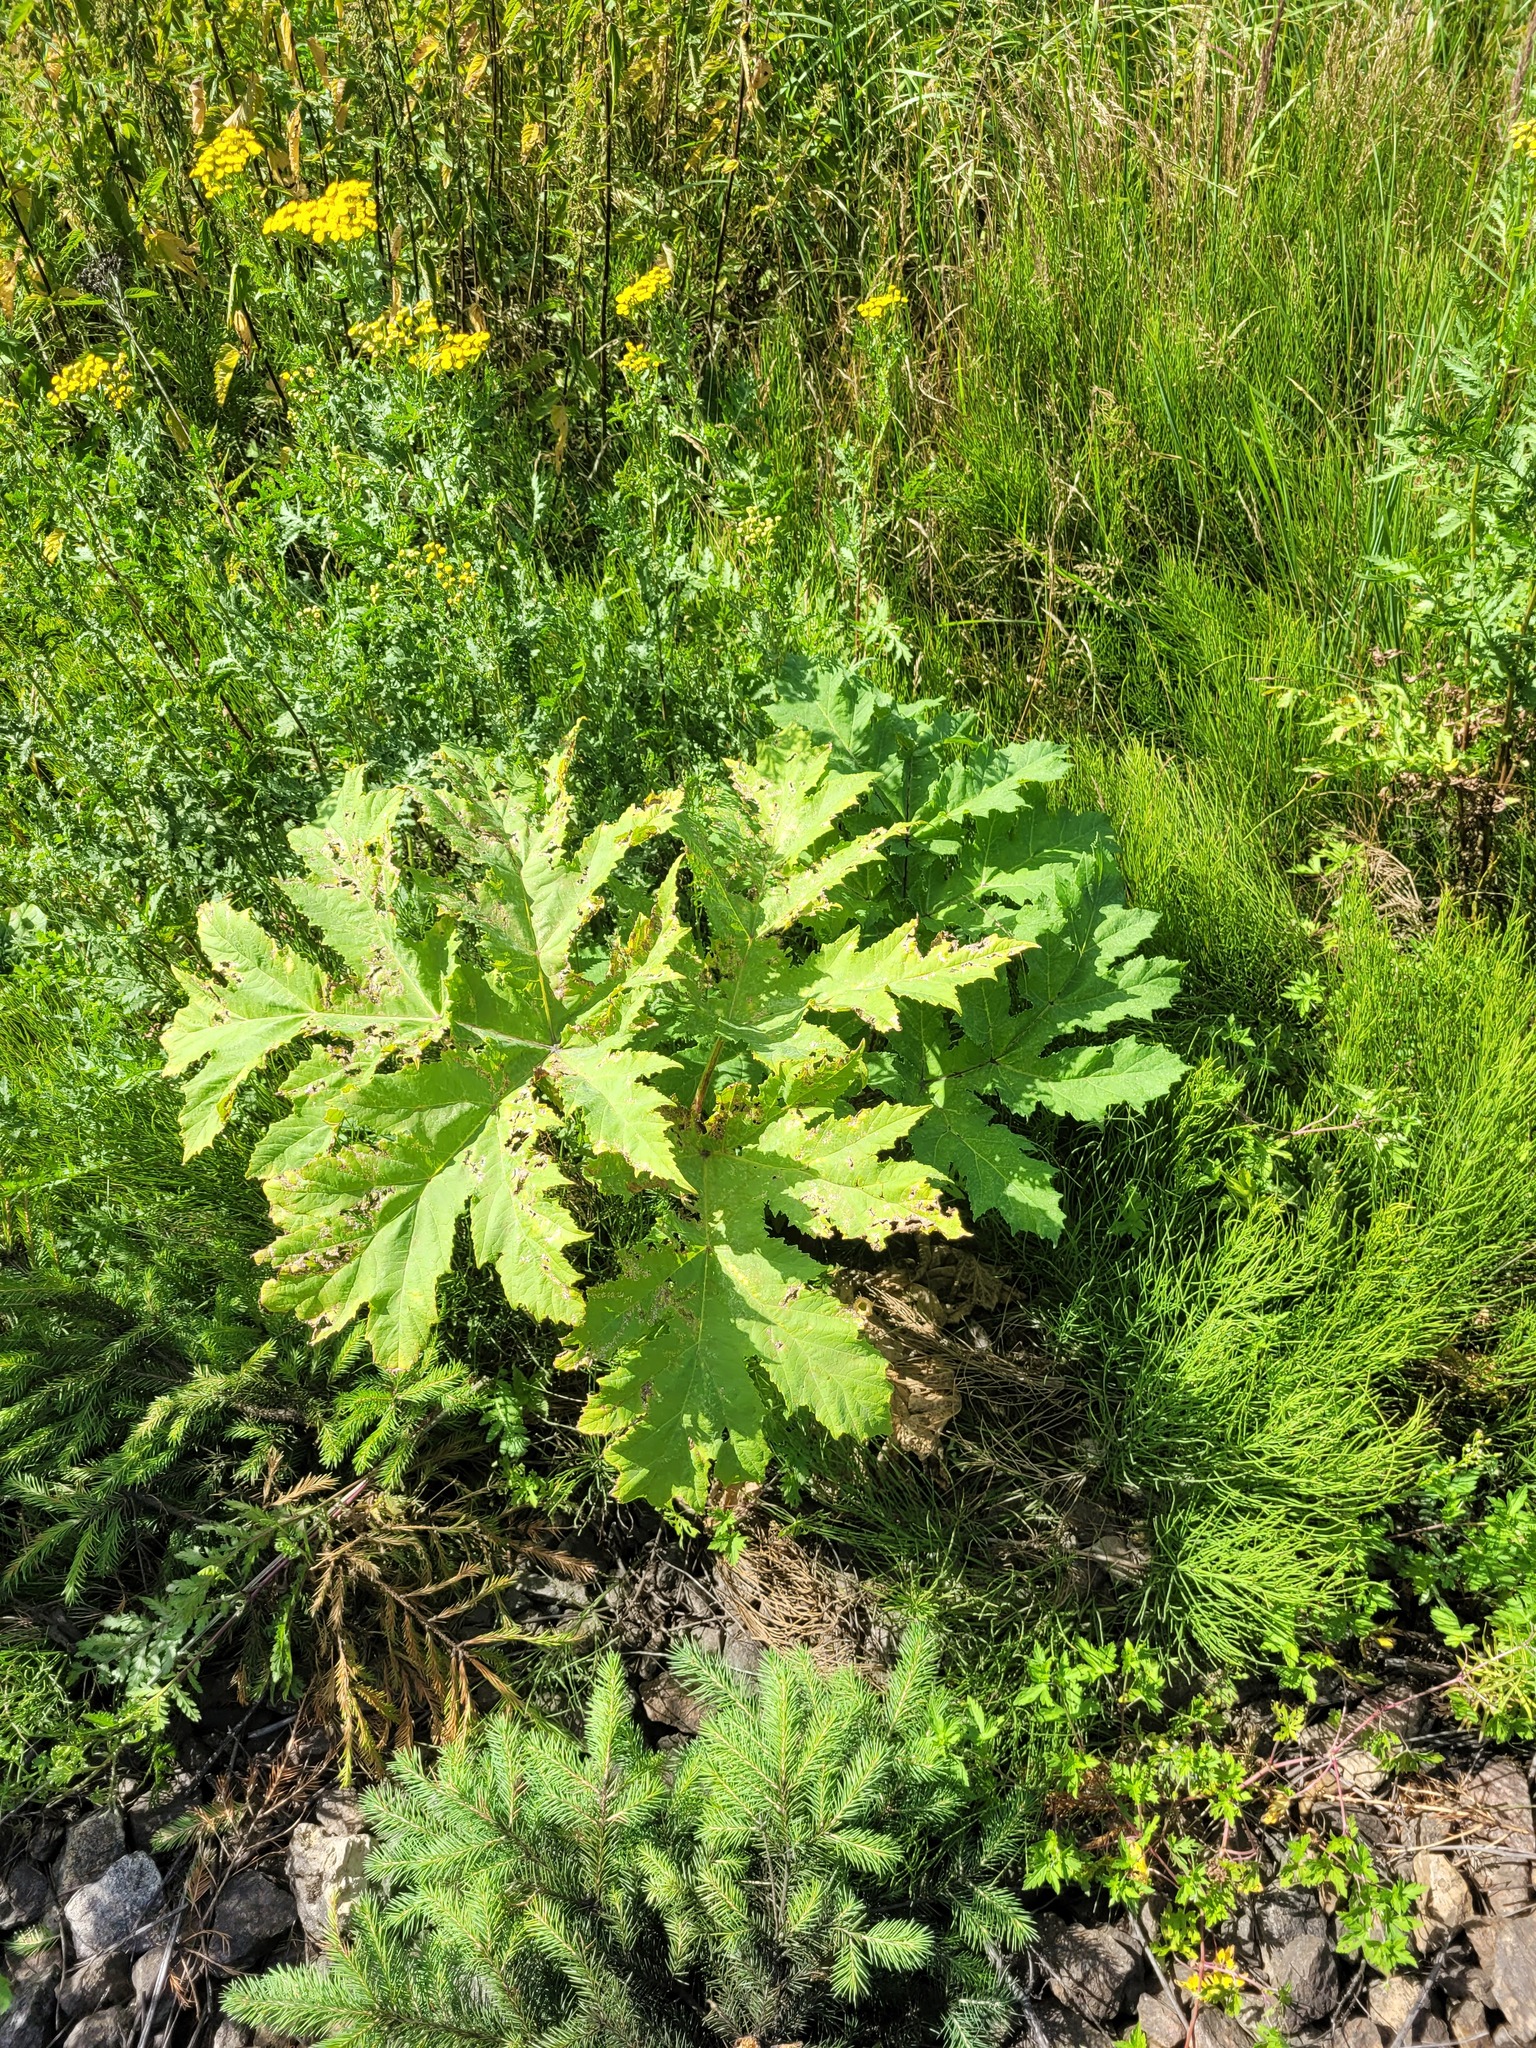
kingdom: Plantae
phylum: Tracheophyta
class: Magnoliopsida
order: Apiales
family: Apiaceae
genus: Heracleum
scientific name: Heracleum sosnowskyi
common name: Sosnowsky's hogweed
